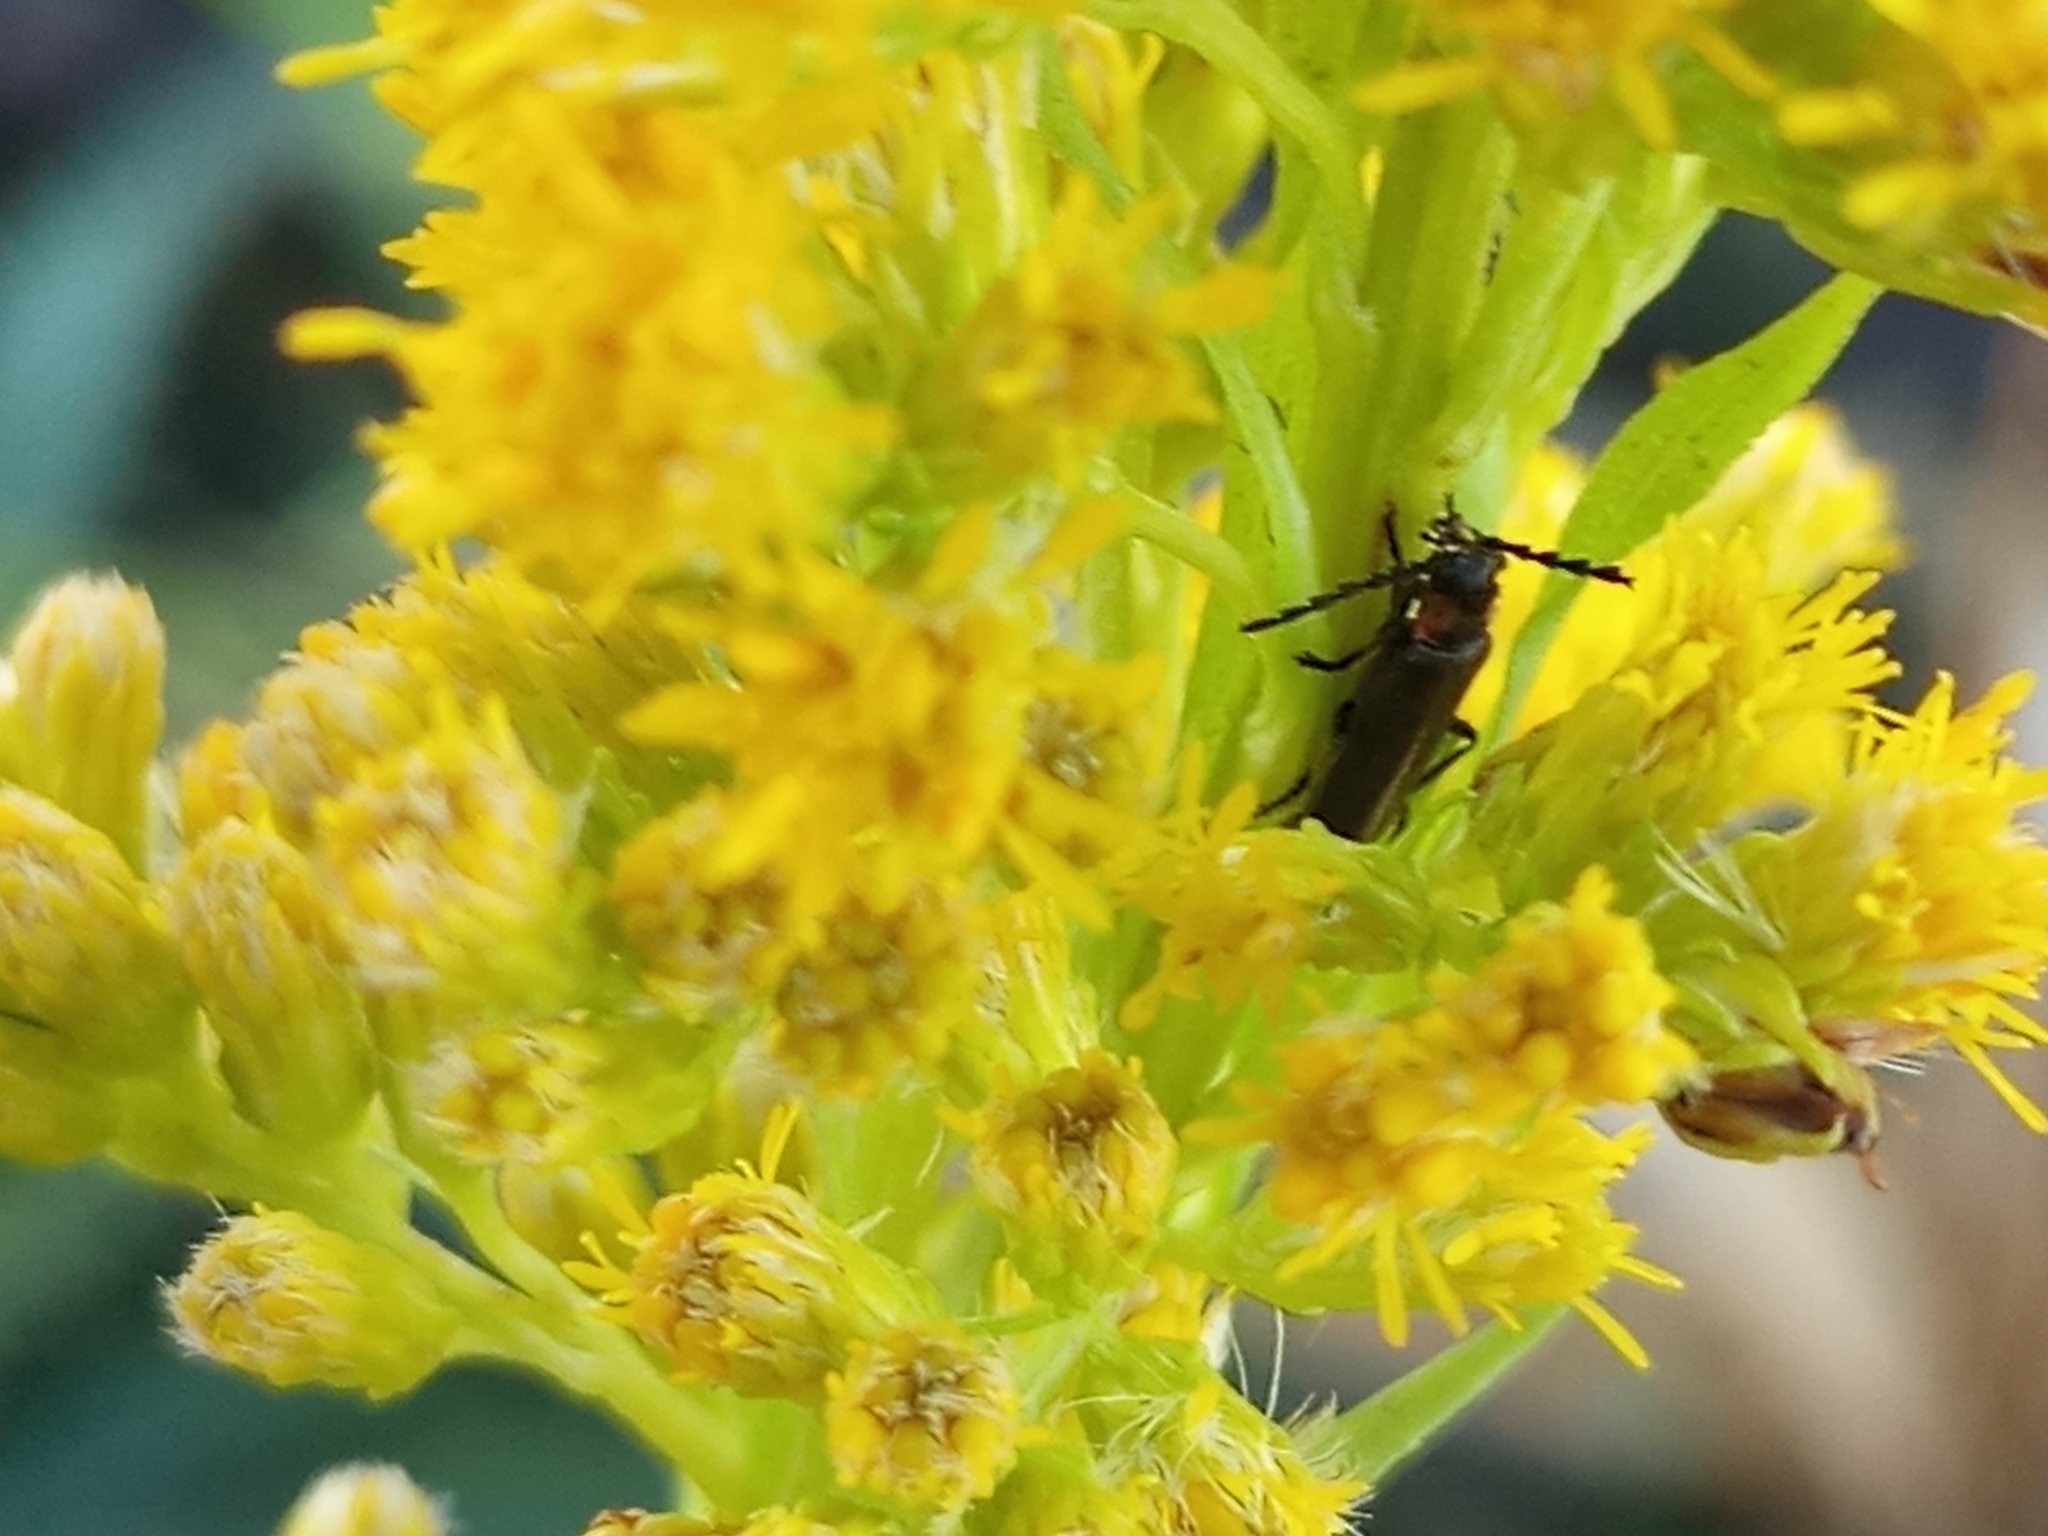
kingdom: Animalia
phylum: Arthropoda
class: Insecta
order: Coleoptera
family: Cantharidae
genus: Polemius
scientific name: Polemius
